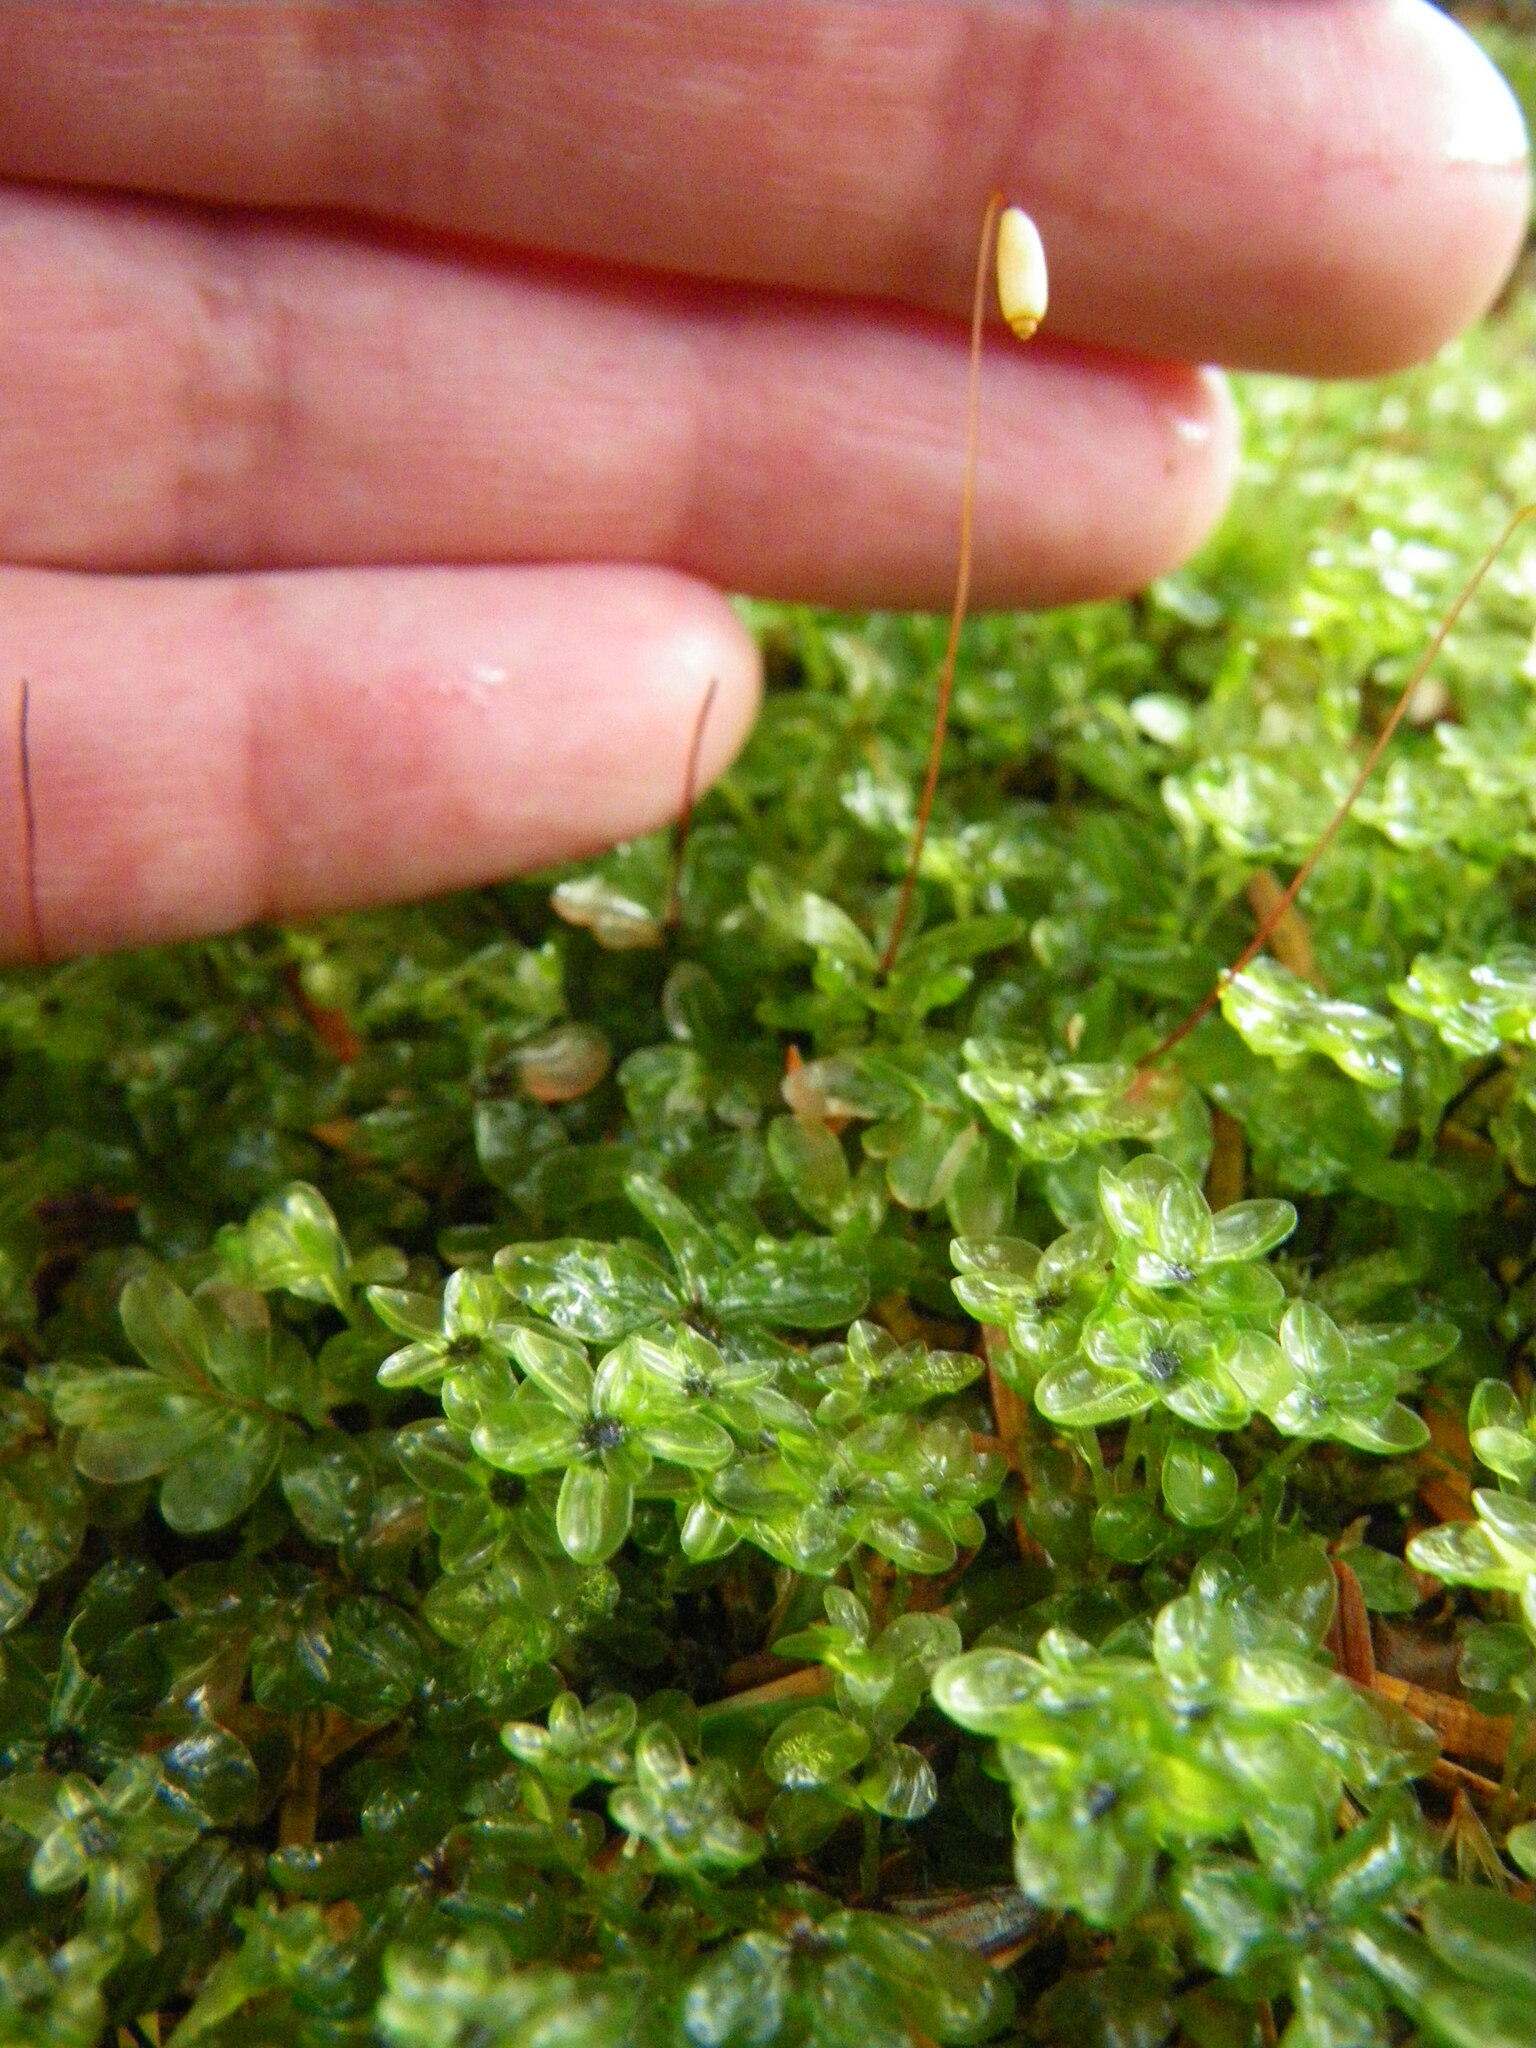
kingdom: Plantae
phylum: Bryophyta
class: Bryopsida
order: Bryales
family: Mniaceae
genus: Rhizomnium
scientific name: Rhizomnium glabrescens
